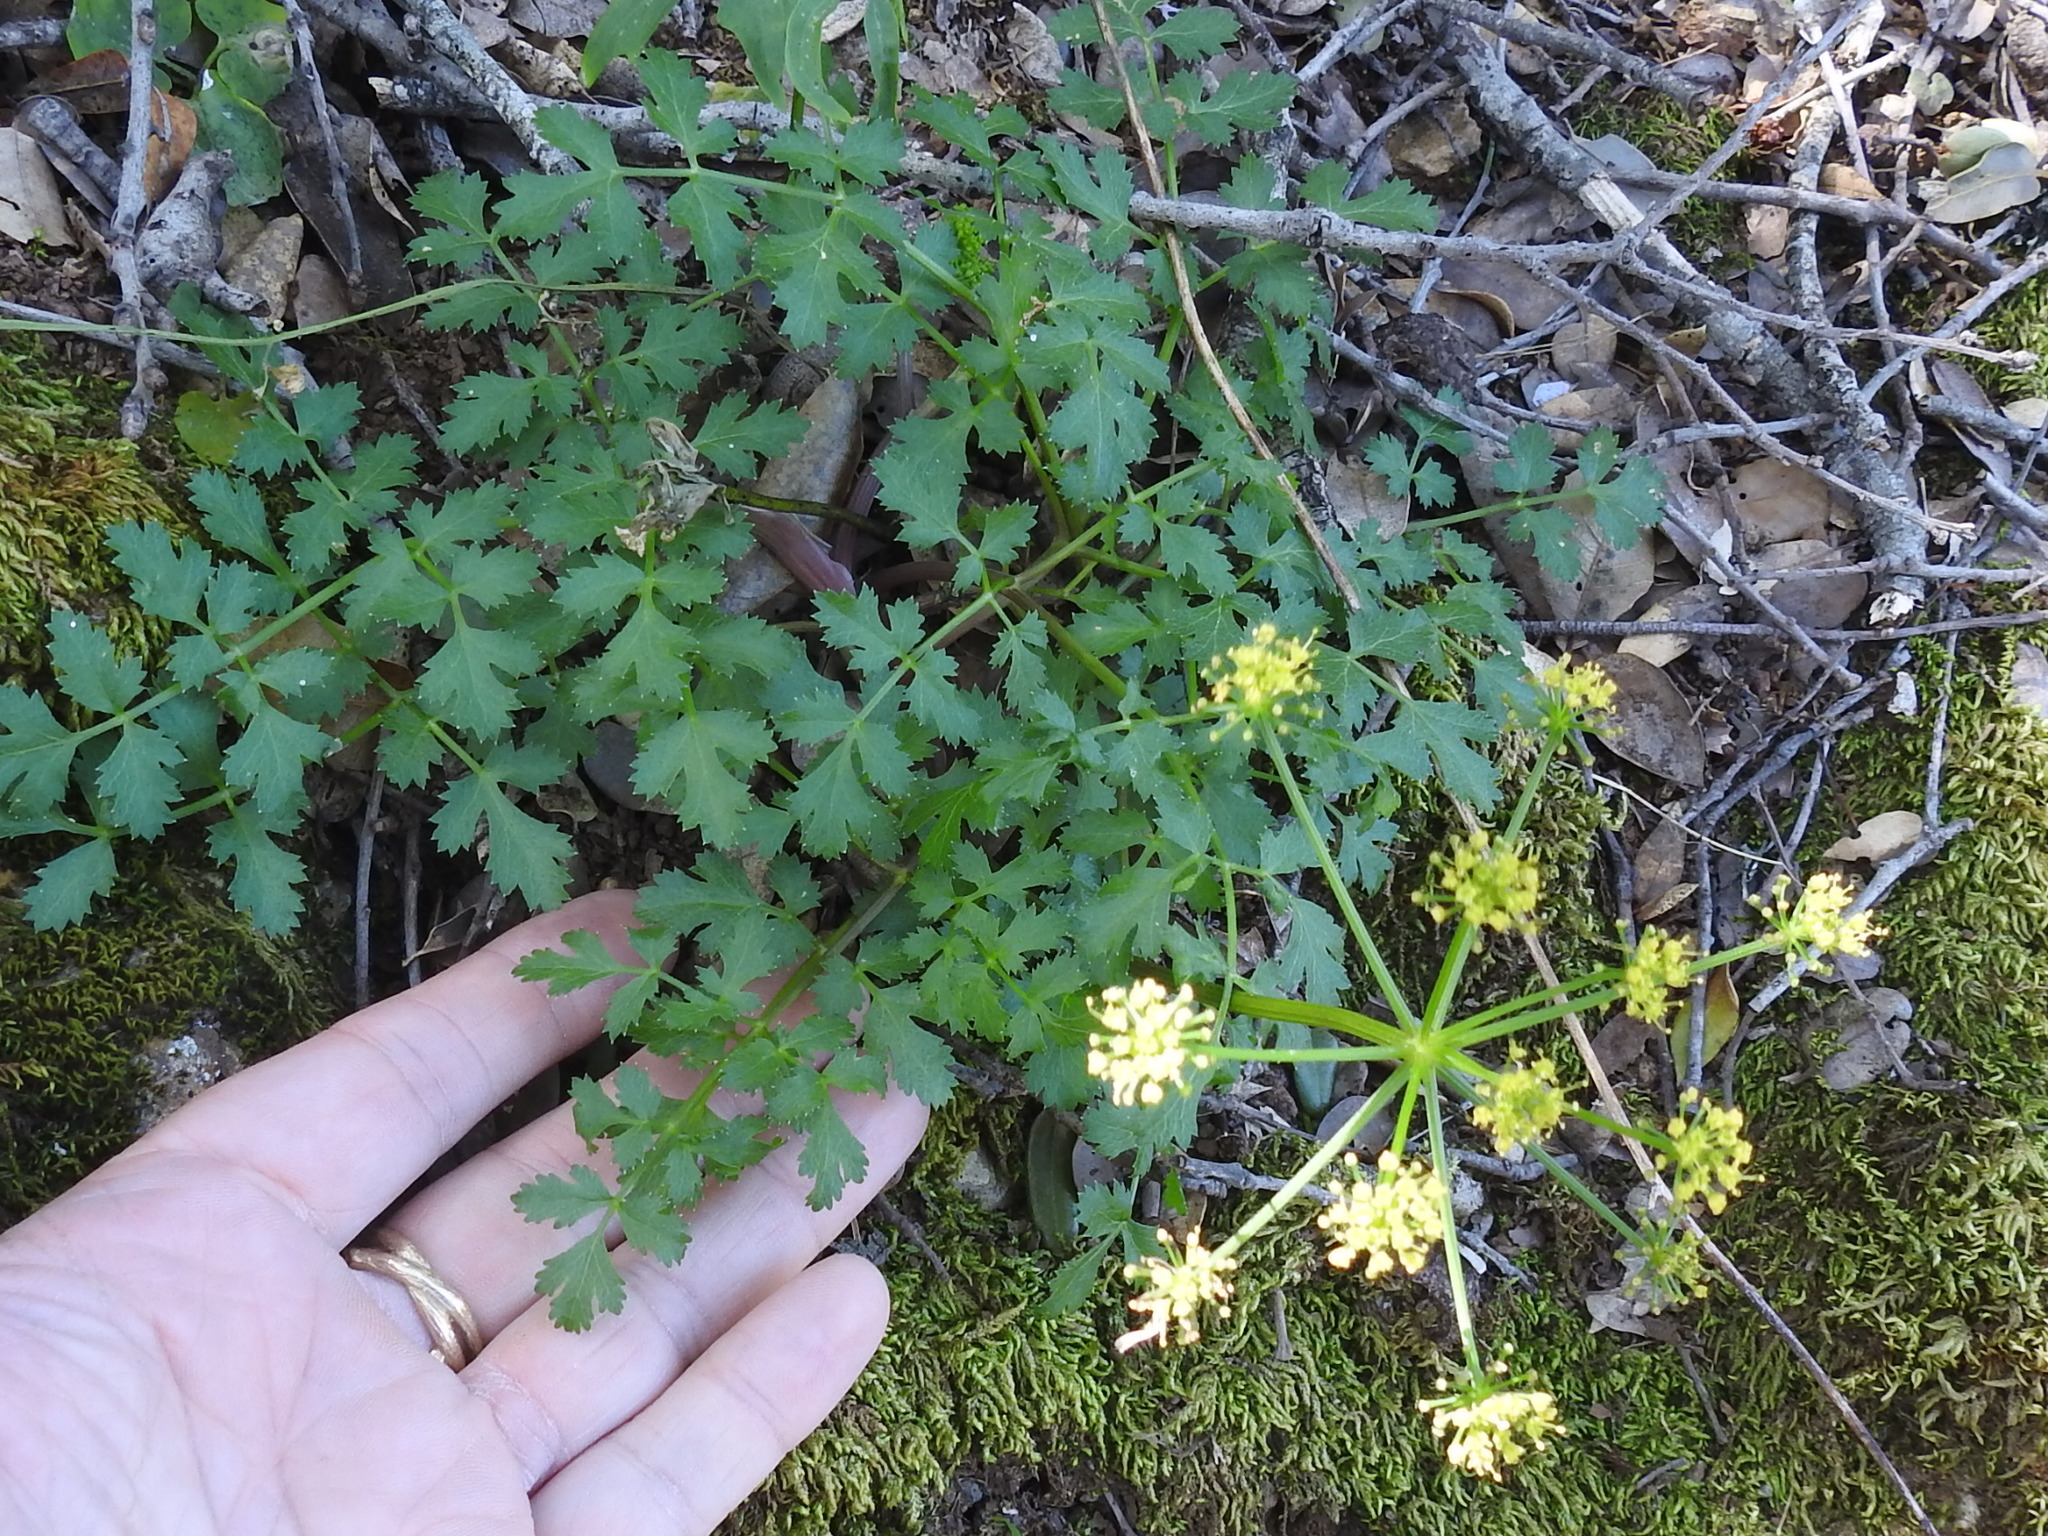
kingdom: Plantae
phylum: Tracheophyta
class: Magnoliopsida
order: Apiales
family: Apiaceae
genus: Tauschia
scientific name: Tauschia kelloggii
